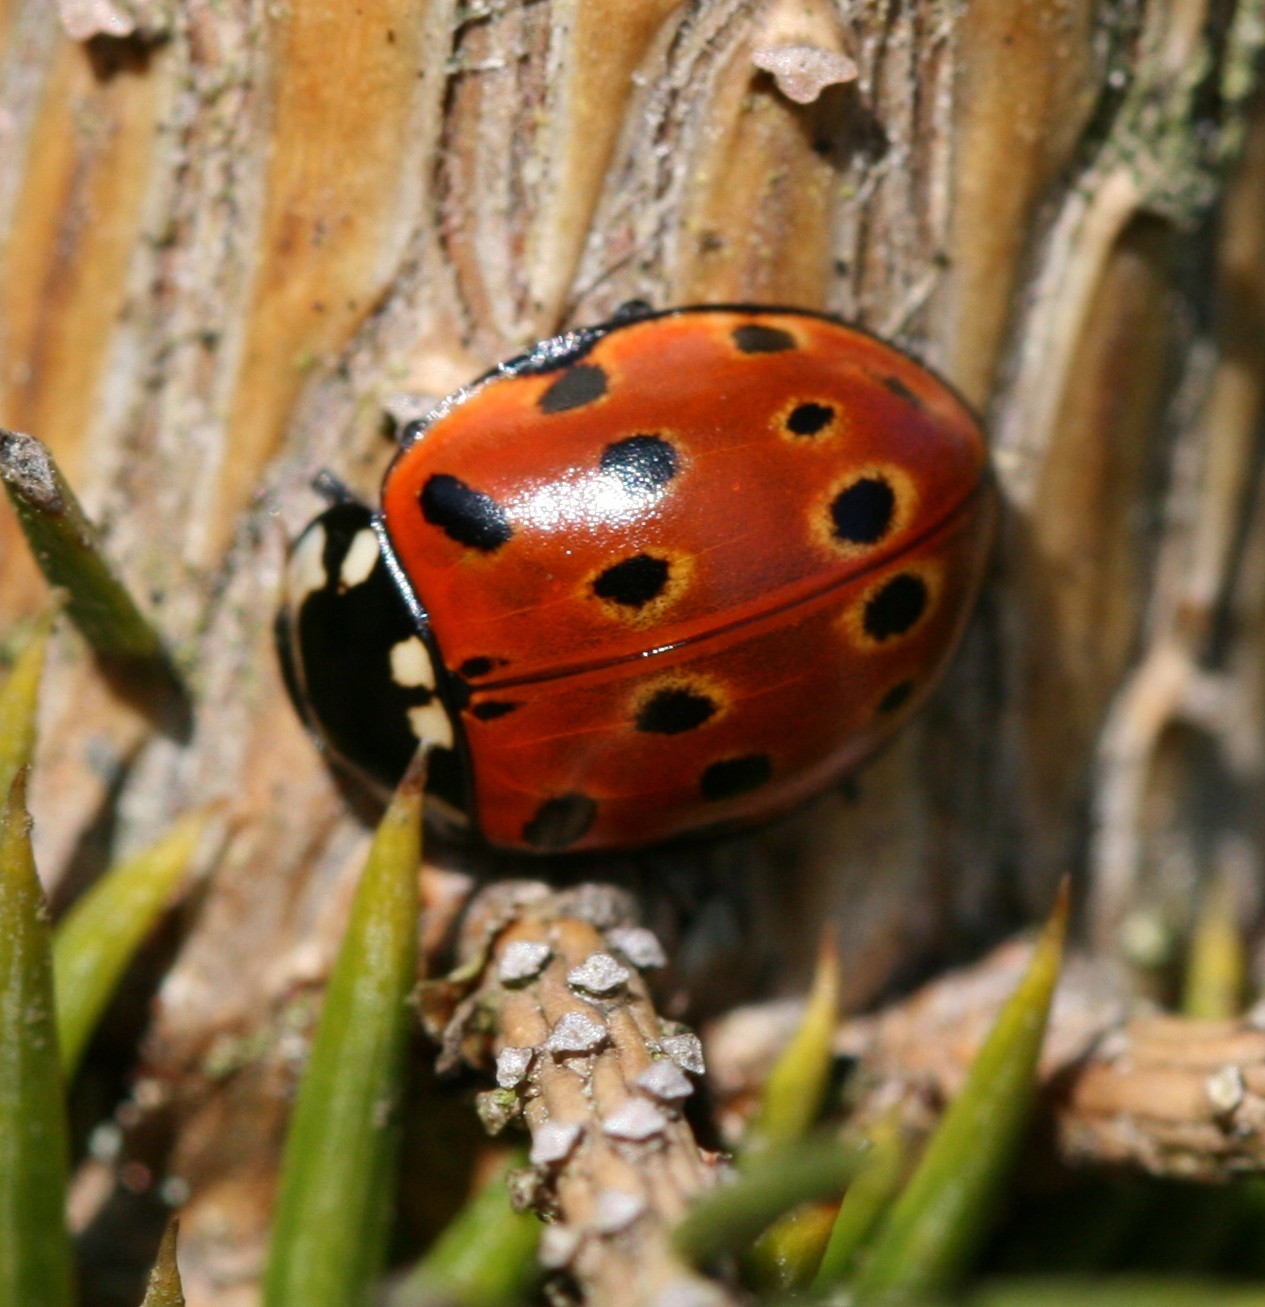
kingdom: Animalia
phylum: Arthropoda
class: Insecta
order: Coleoptera
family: Coccinellidae
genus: Anatis
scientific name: Anatis ocellata
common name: Eyed ladybird
